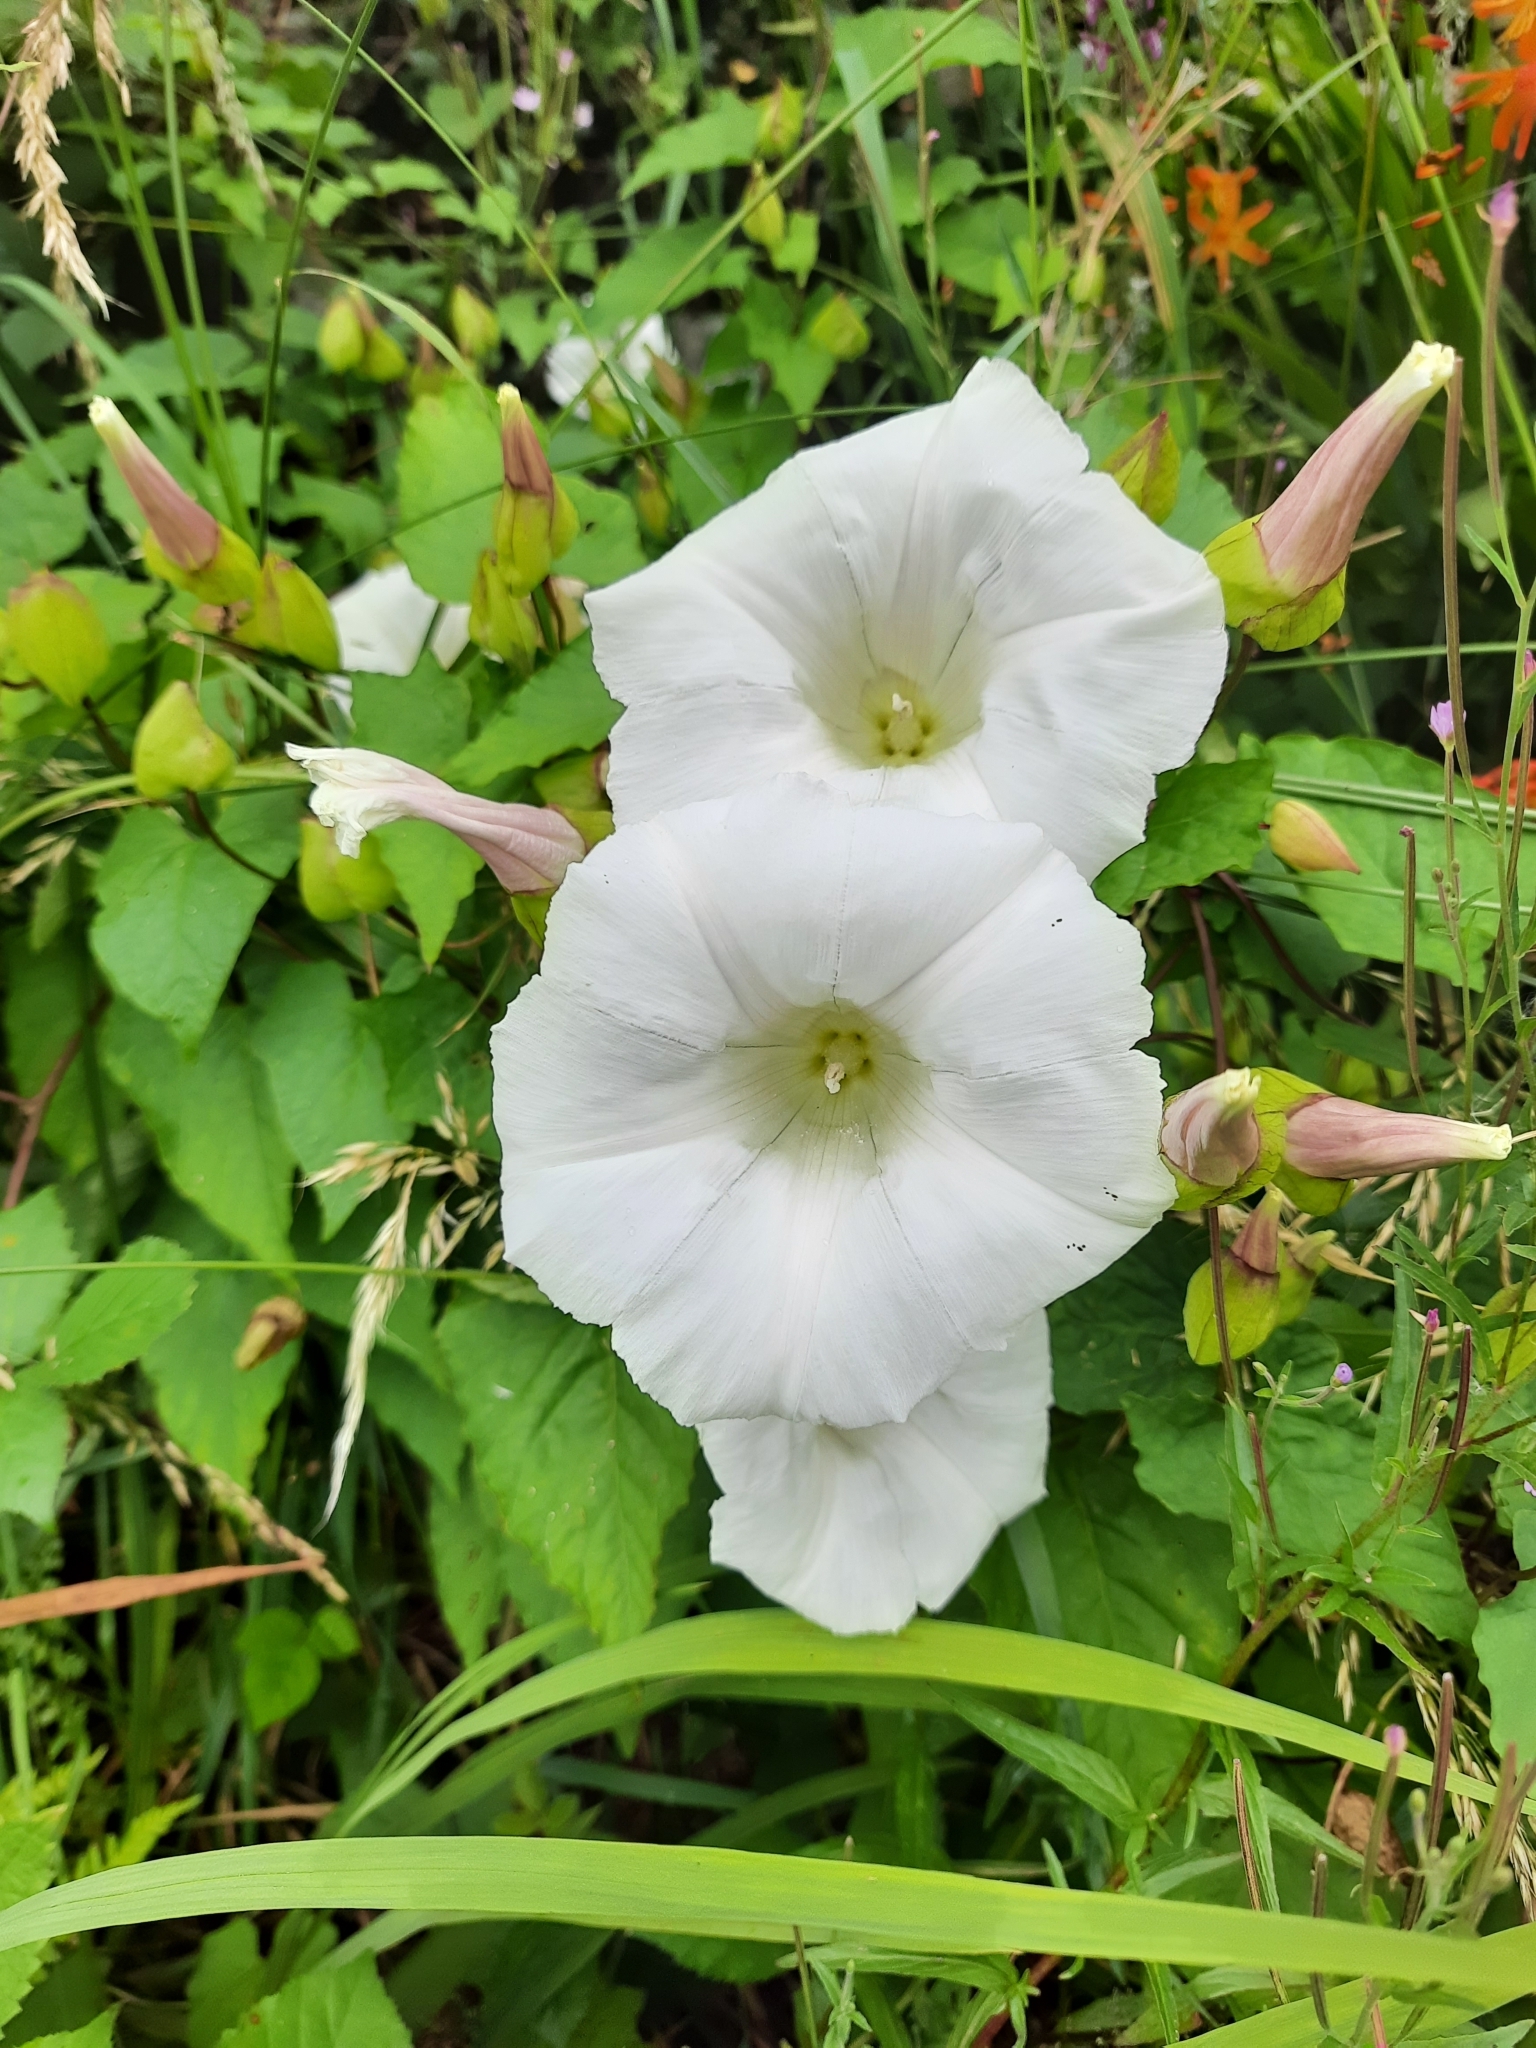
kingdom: Plantae
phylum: Tracheophyta
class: Magnoliopsida
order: Solanales
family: Convolvulaceae
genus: Calystegia
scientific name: Calystegia silvatica
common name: Large bindweed
